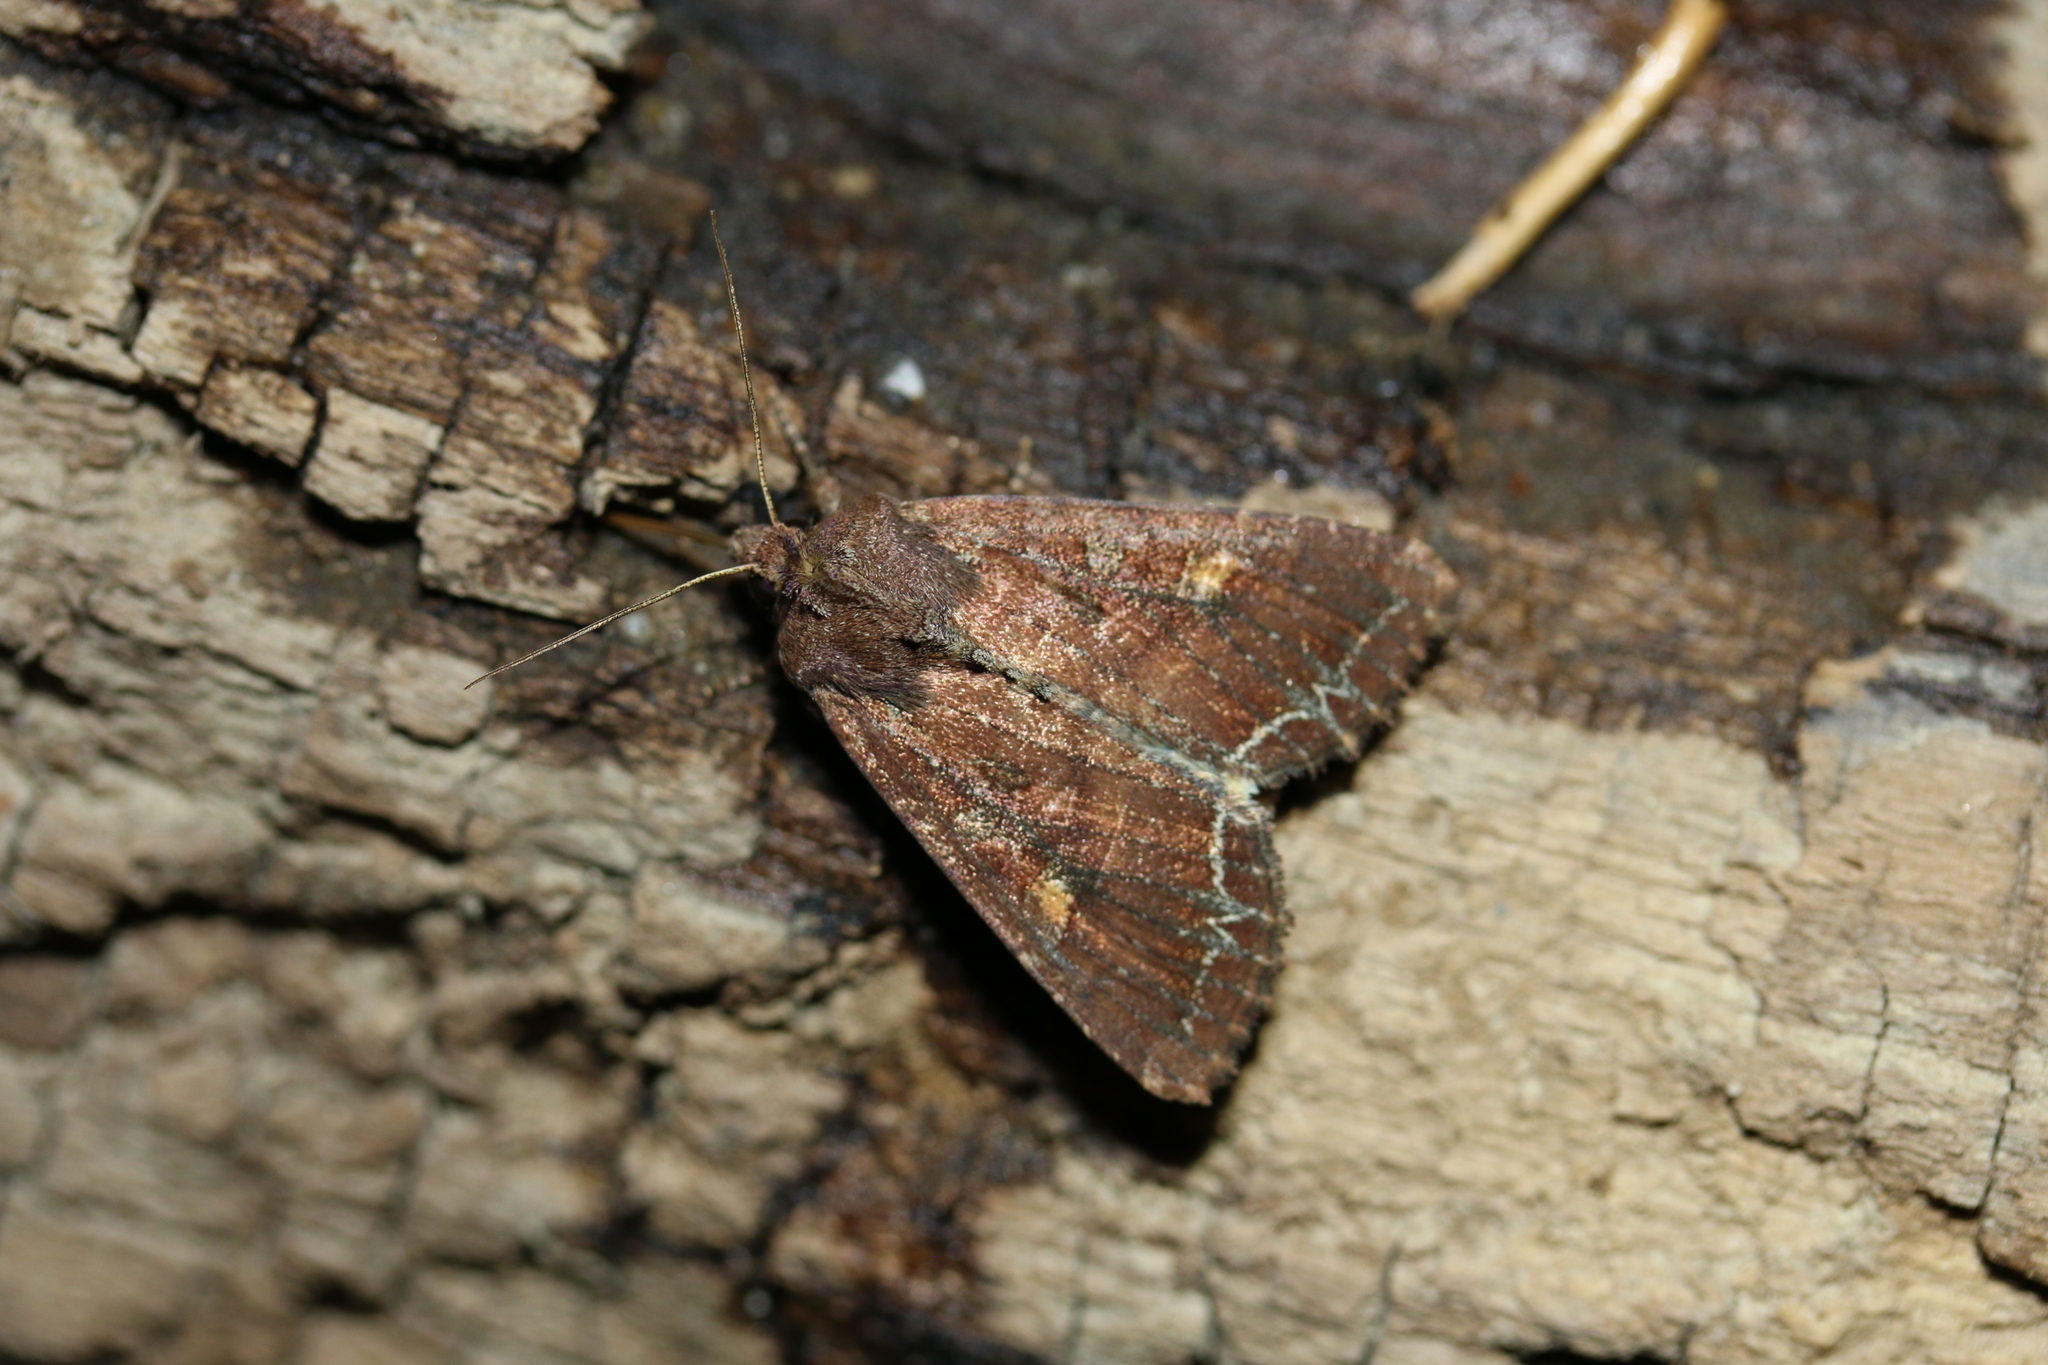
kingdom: Animalia
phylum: Arthropoda
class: Insecta
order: Lepidoptera
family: Noctuidae
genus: Lacanobia
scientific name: Lacanobia oleracea
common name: Bright-line brown-eye
